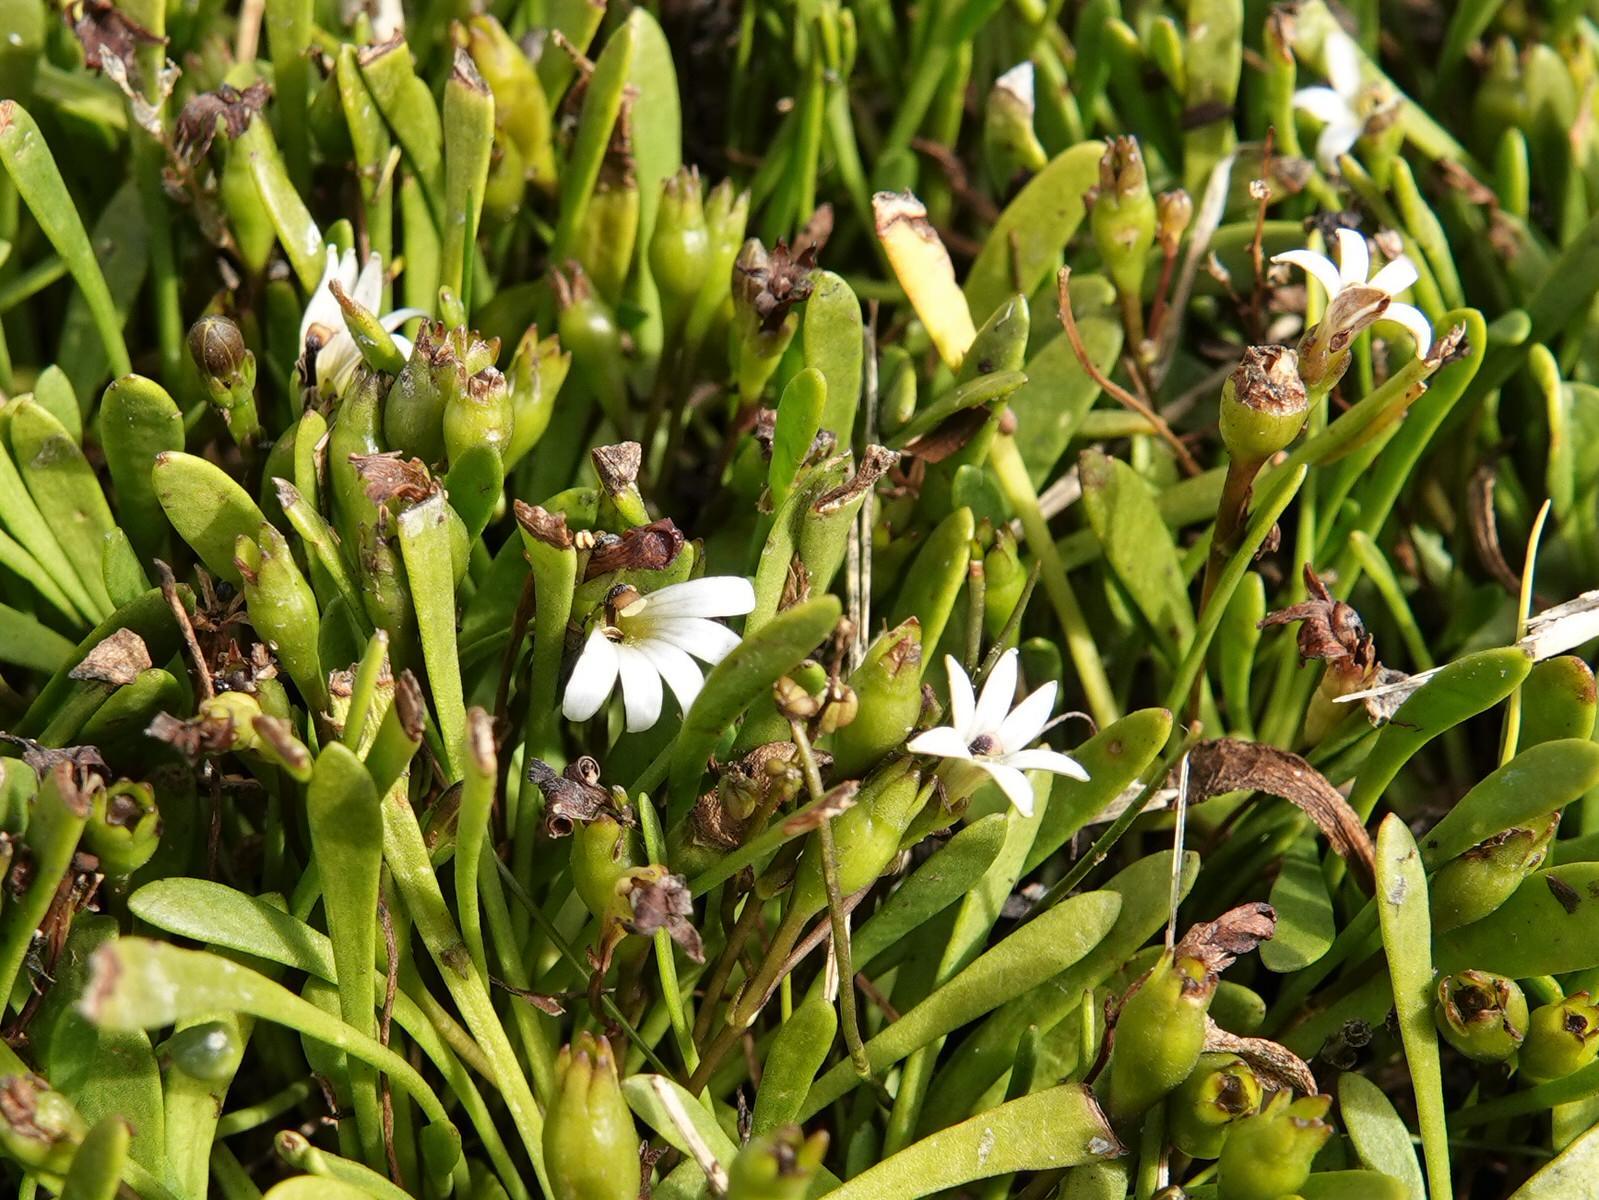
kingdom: Plantae
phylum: Tracheophyta
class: Magnoliopsida
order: Asterales
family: Goodeniaceae
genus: Goodenia
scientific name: Goodenia radicans
